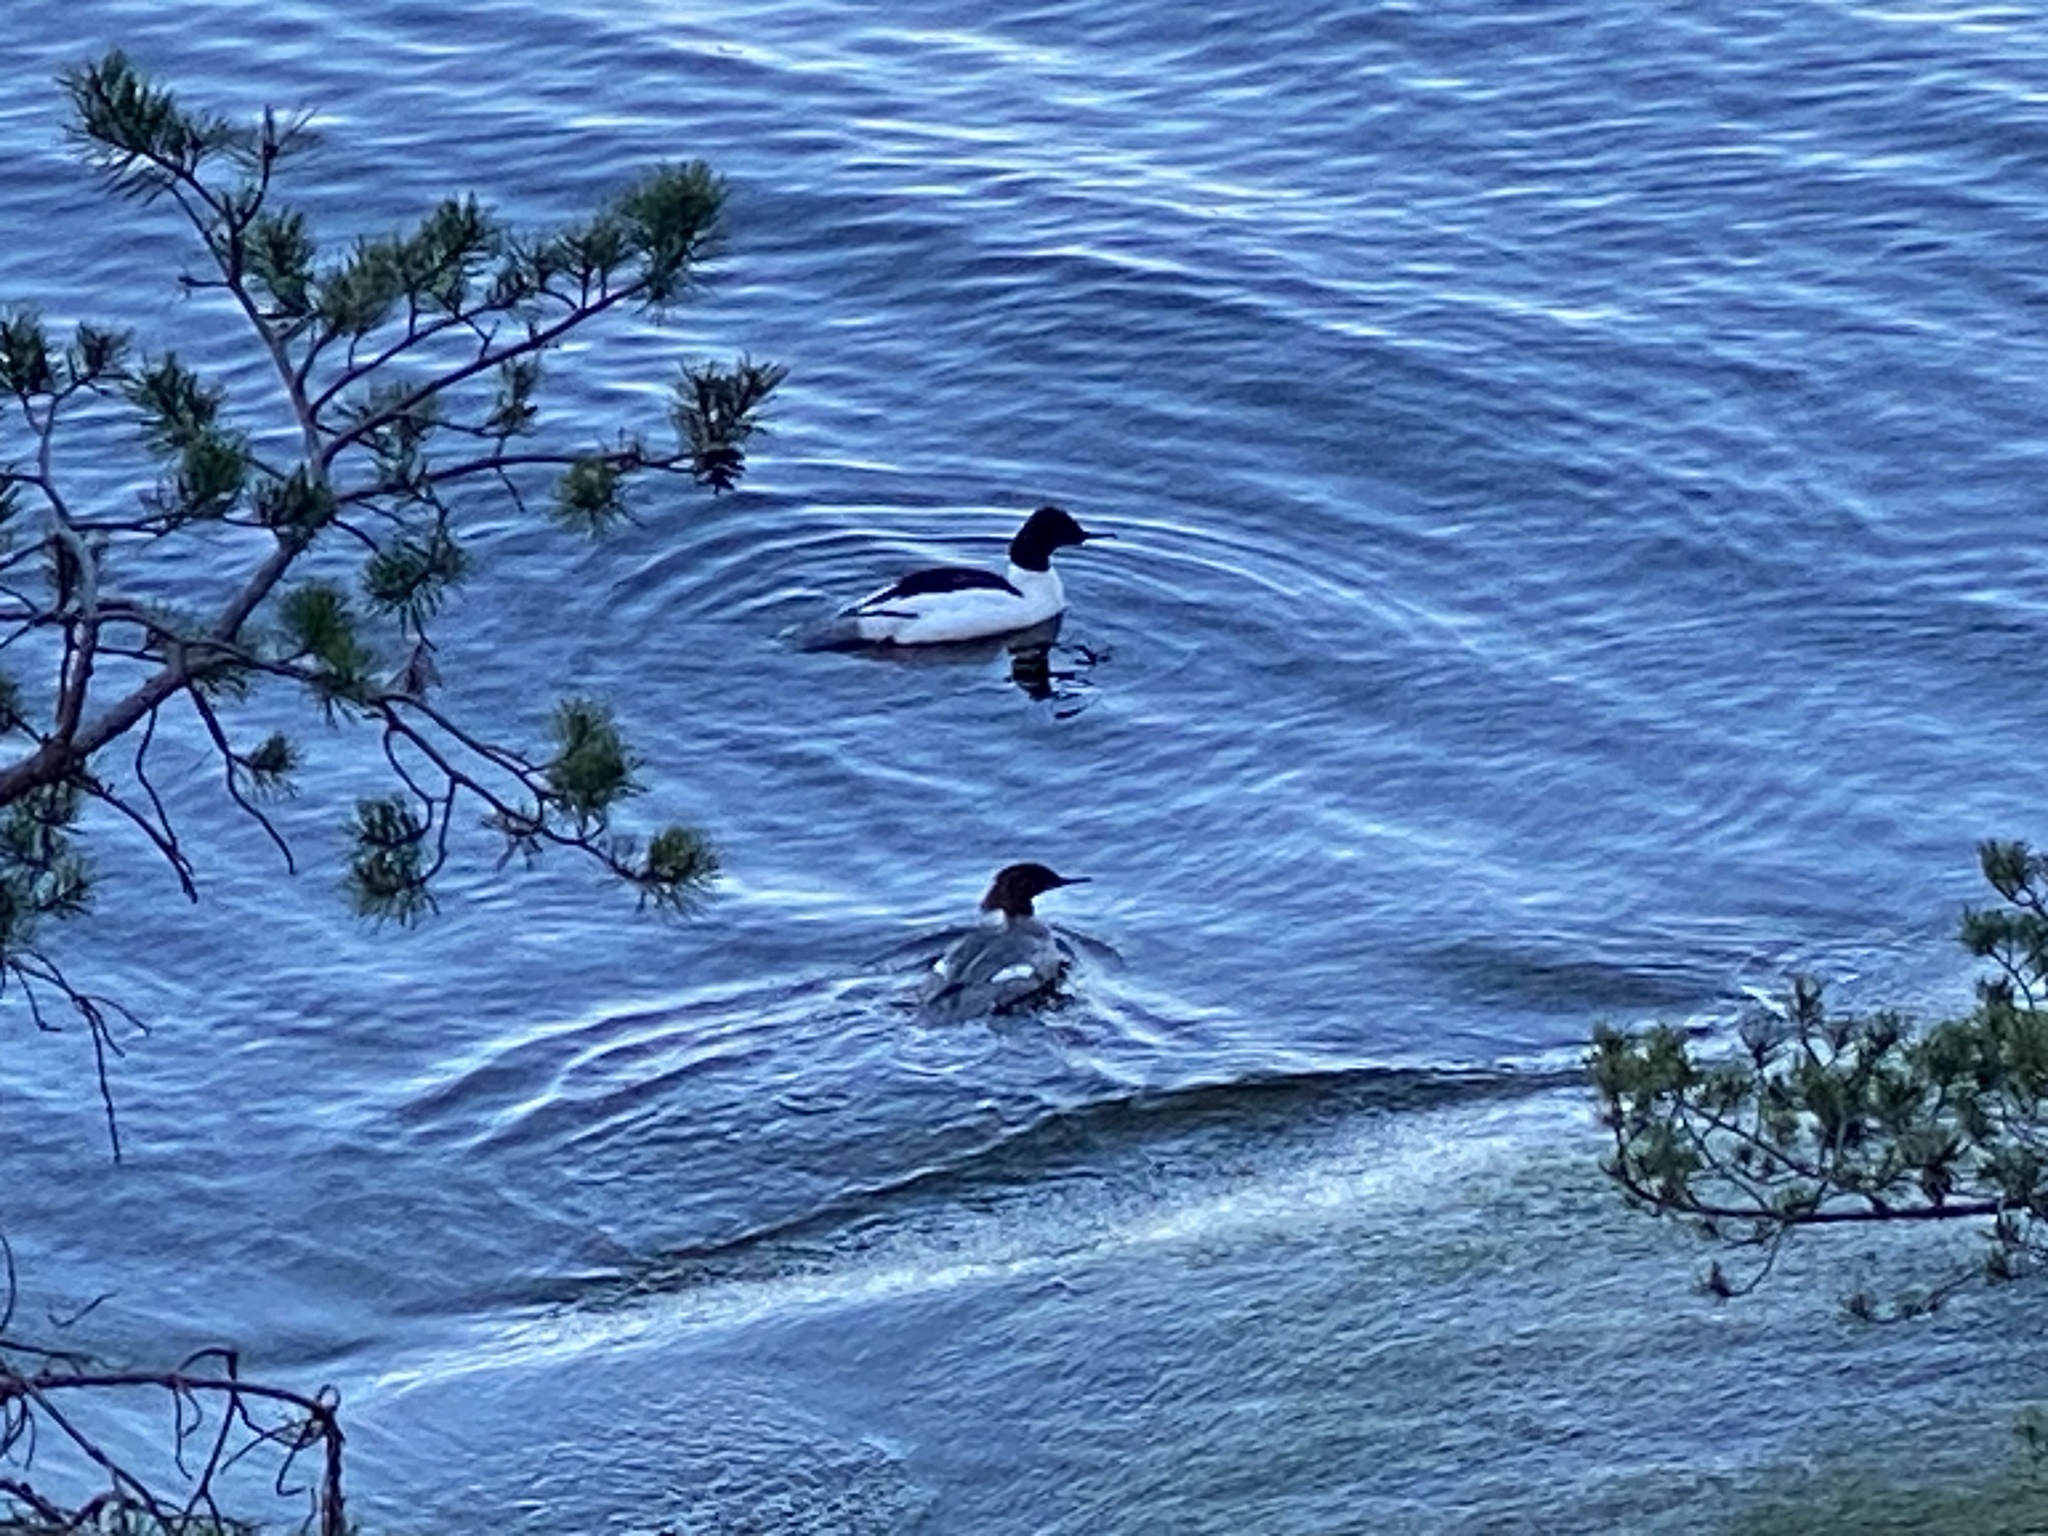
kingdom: Animalia
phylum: Chordata
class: Aves
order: Anseriformes
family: Anatidae
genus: Mergus
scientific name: Mergus merganser
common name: Common merganser
